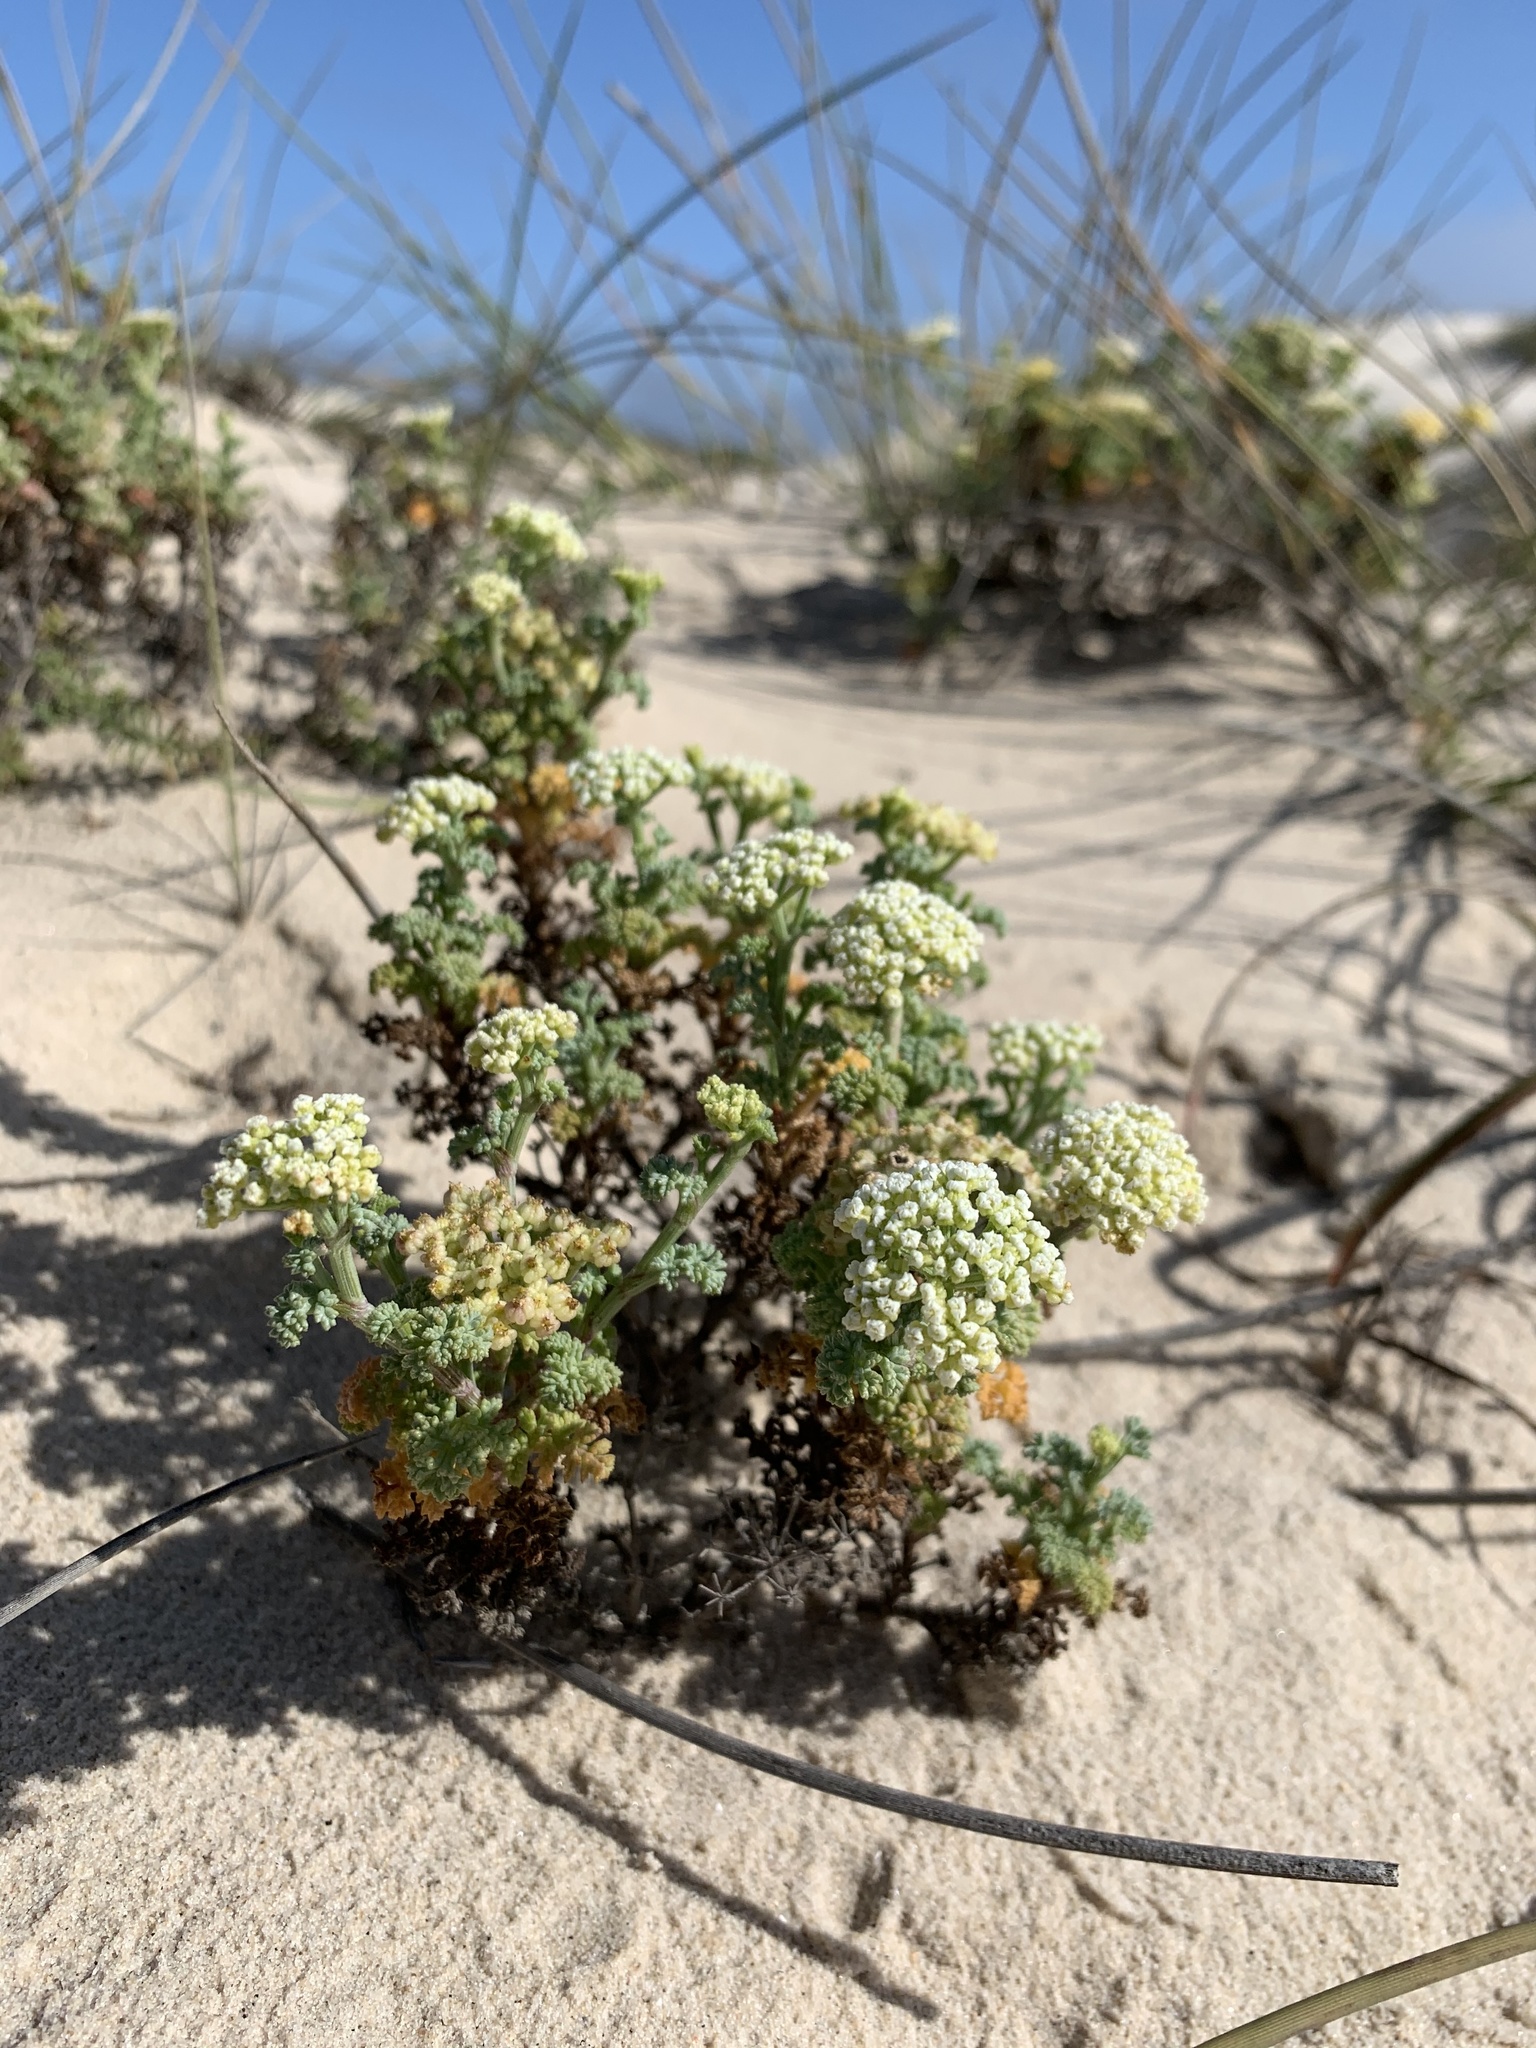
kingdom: Plantae
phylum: Tracheophyta
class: Magnoliopsida
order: Apiales
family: Apiaceae
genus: Dasispermum
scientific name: Dasispermum suffruticosum
